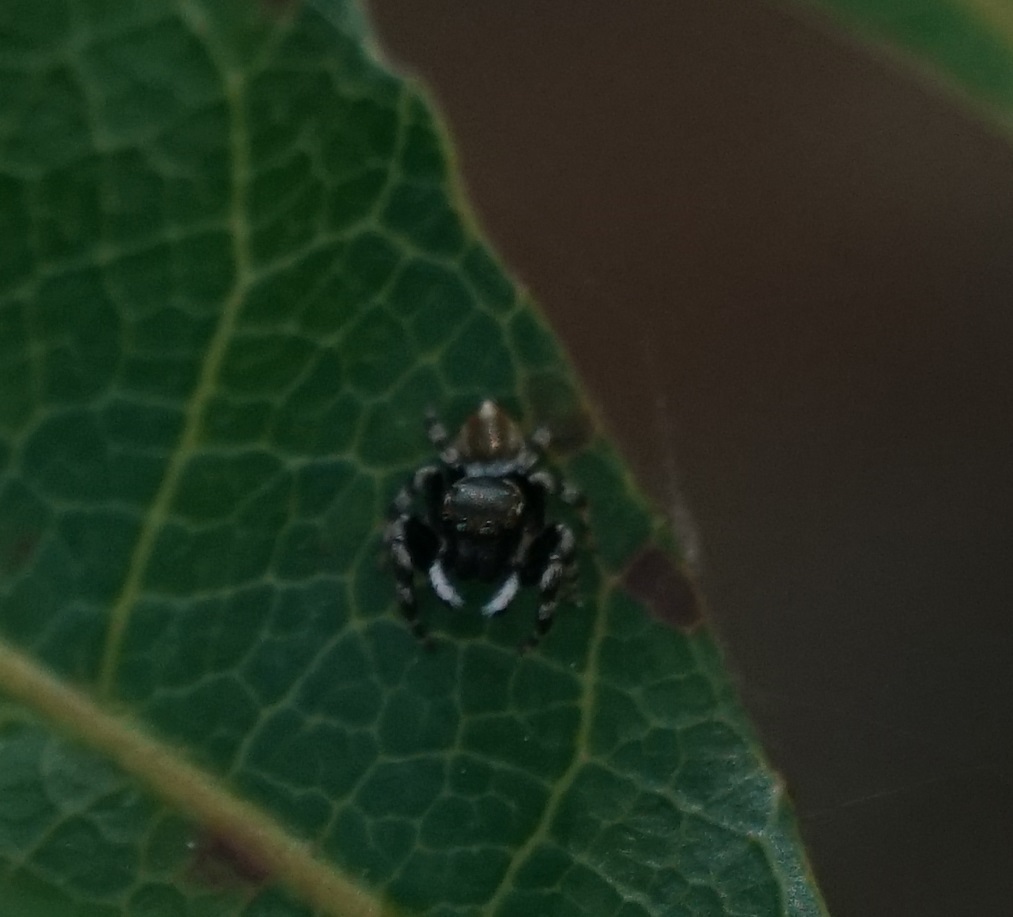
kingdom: Animalia
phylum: Arthropoda
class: Arachnida
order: Araneae
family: Salticidae
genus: Maratus
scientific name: Maratus scutulatus
